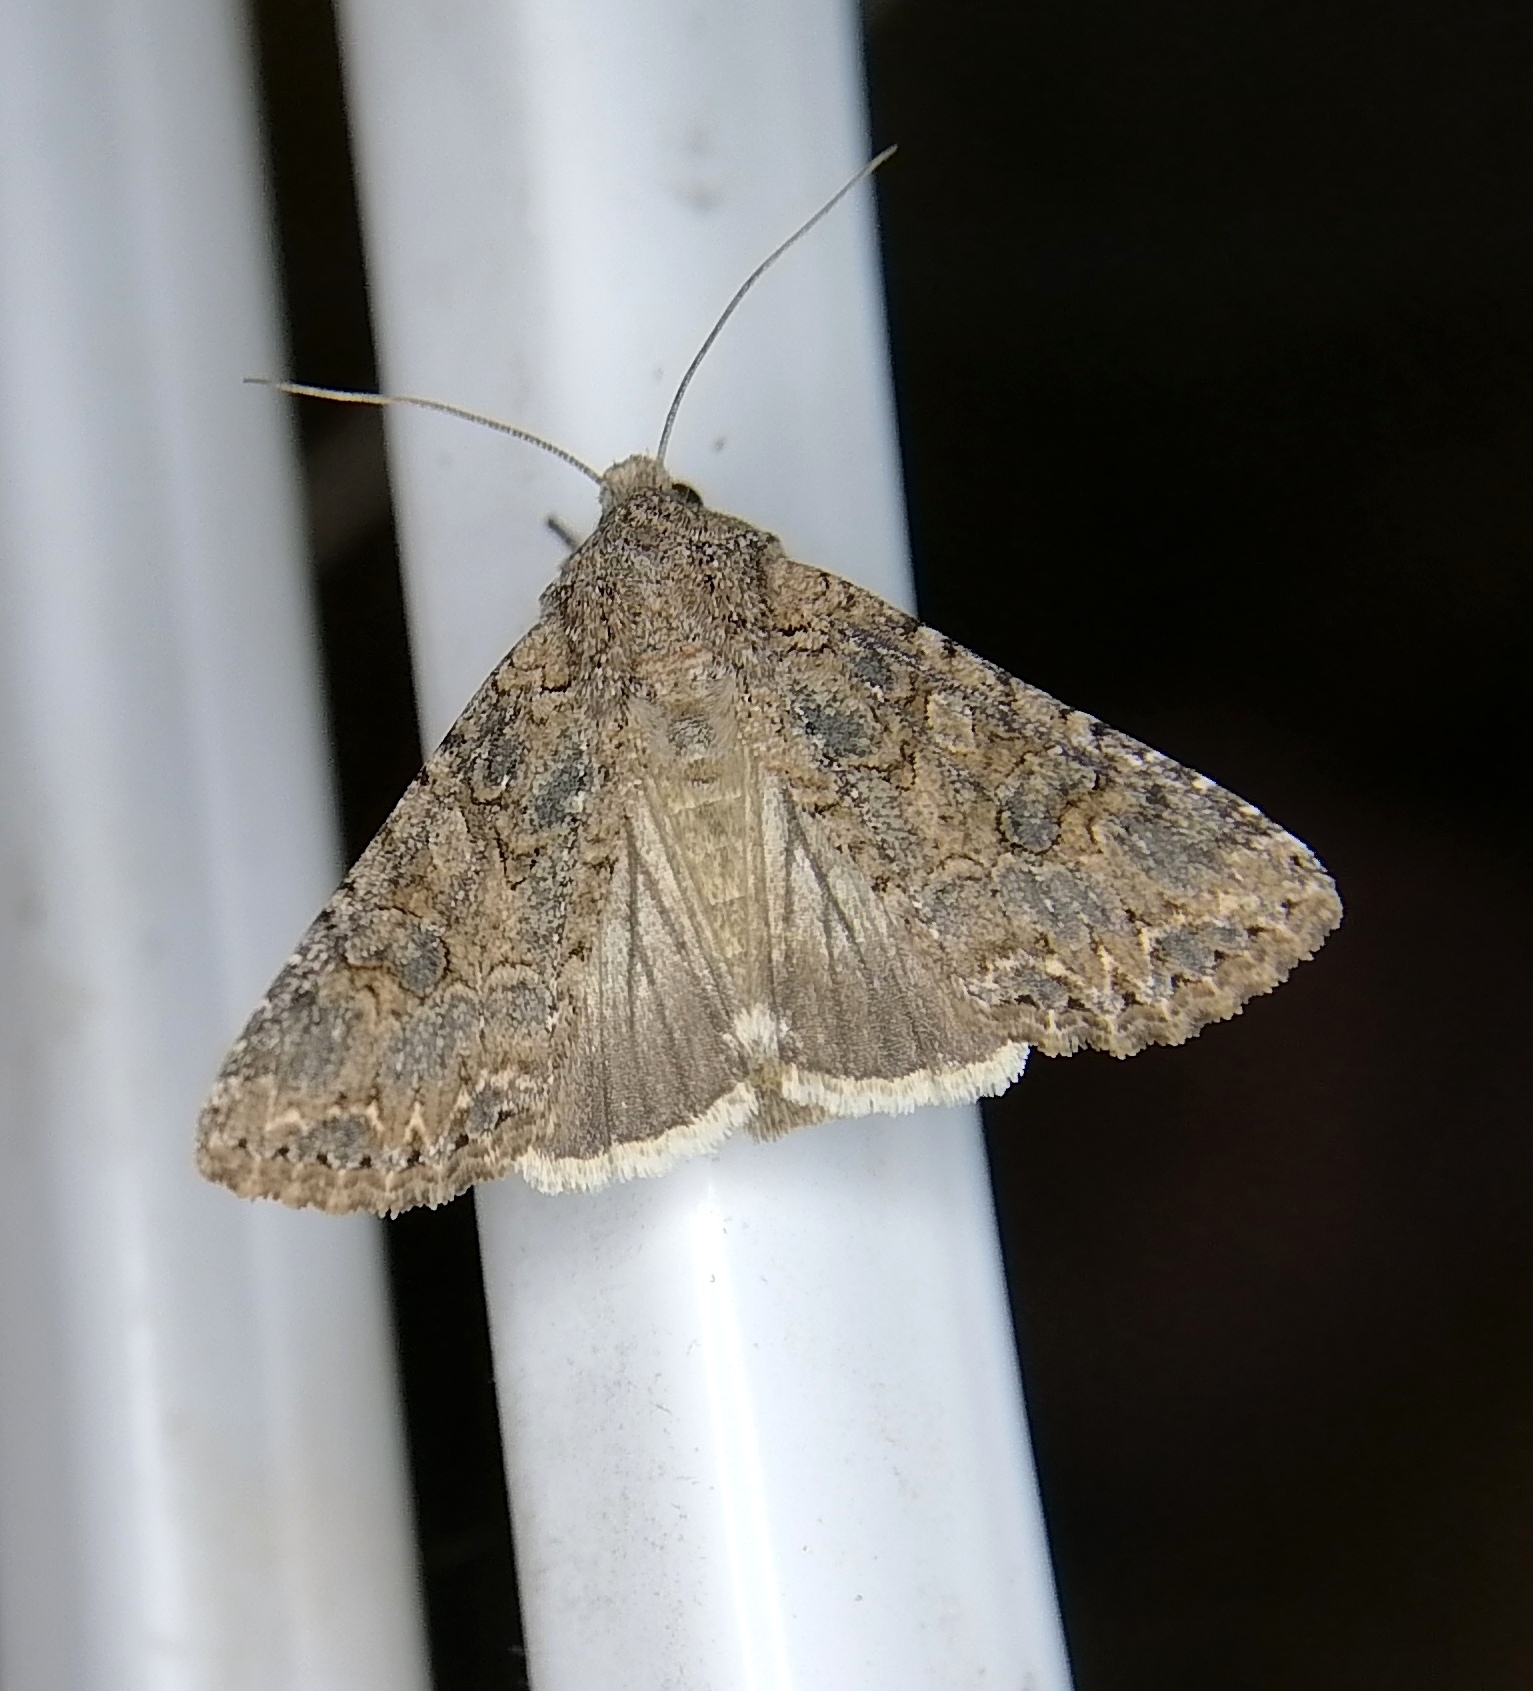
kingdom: Animalia
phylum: Arthropoda
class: Insecta
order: Lepidoptera
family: Noctuidae
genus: Anarta
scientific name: Anarta trifolii
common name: Clover cutworm moth
